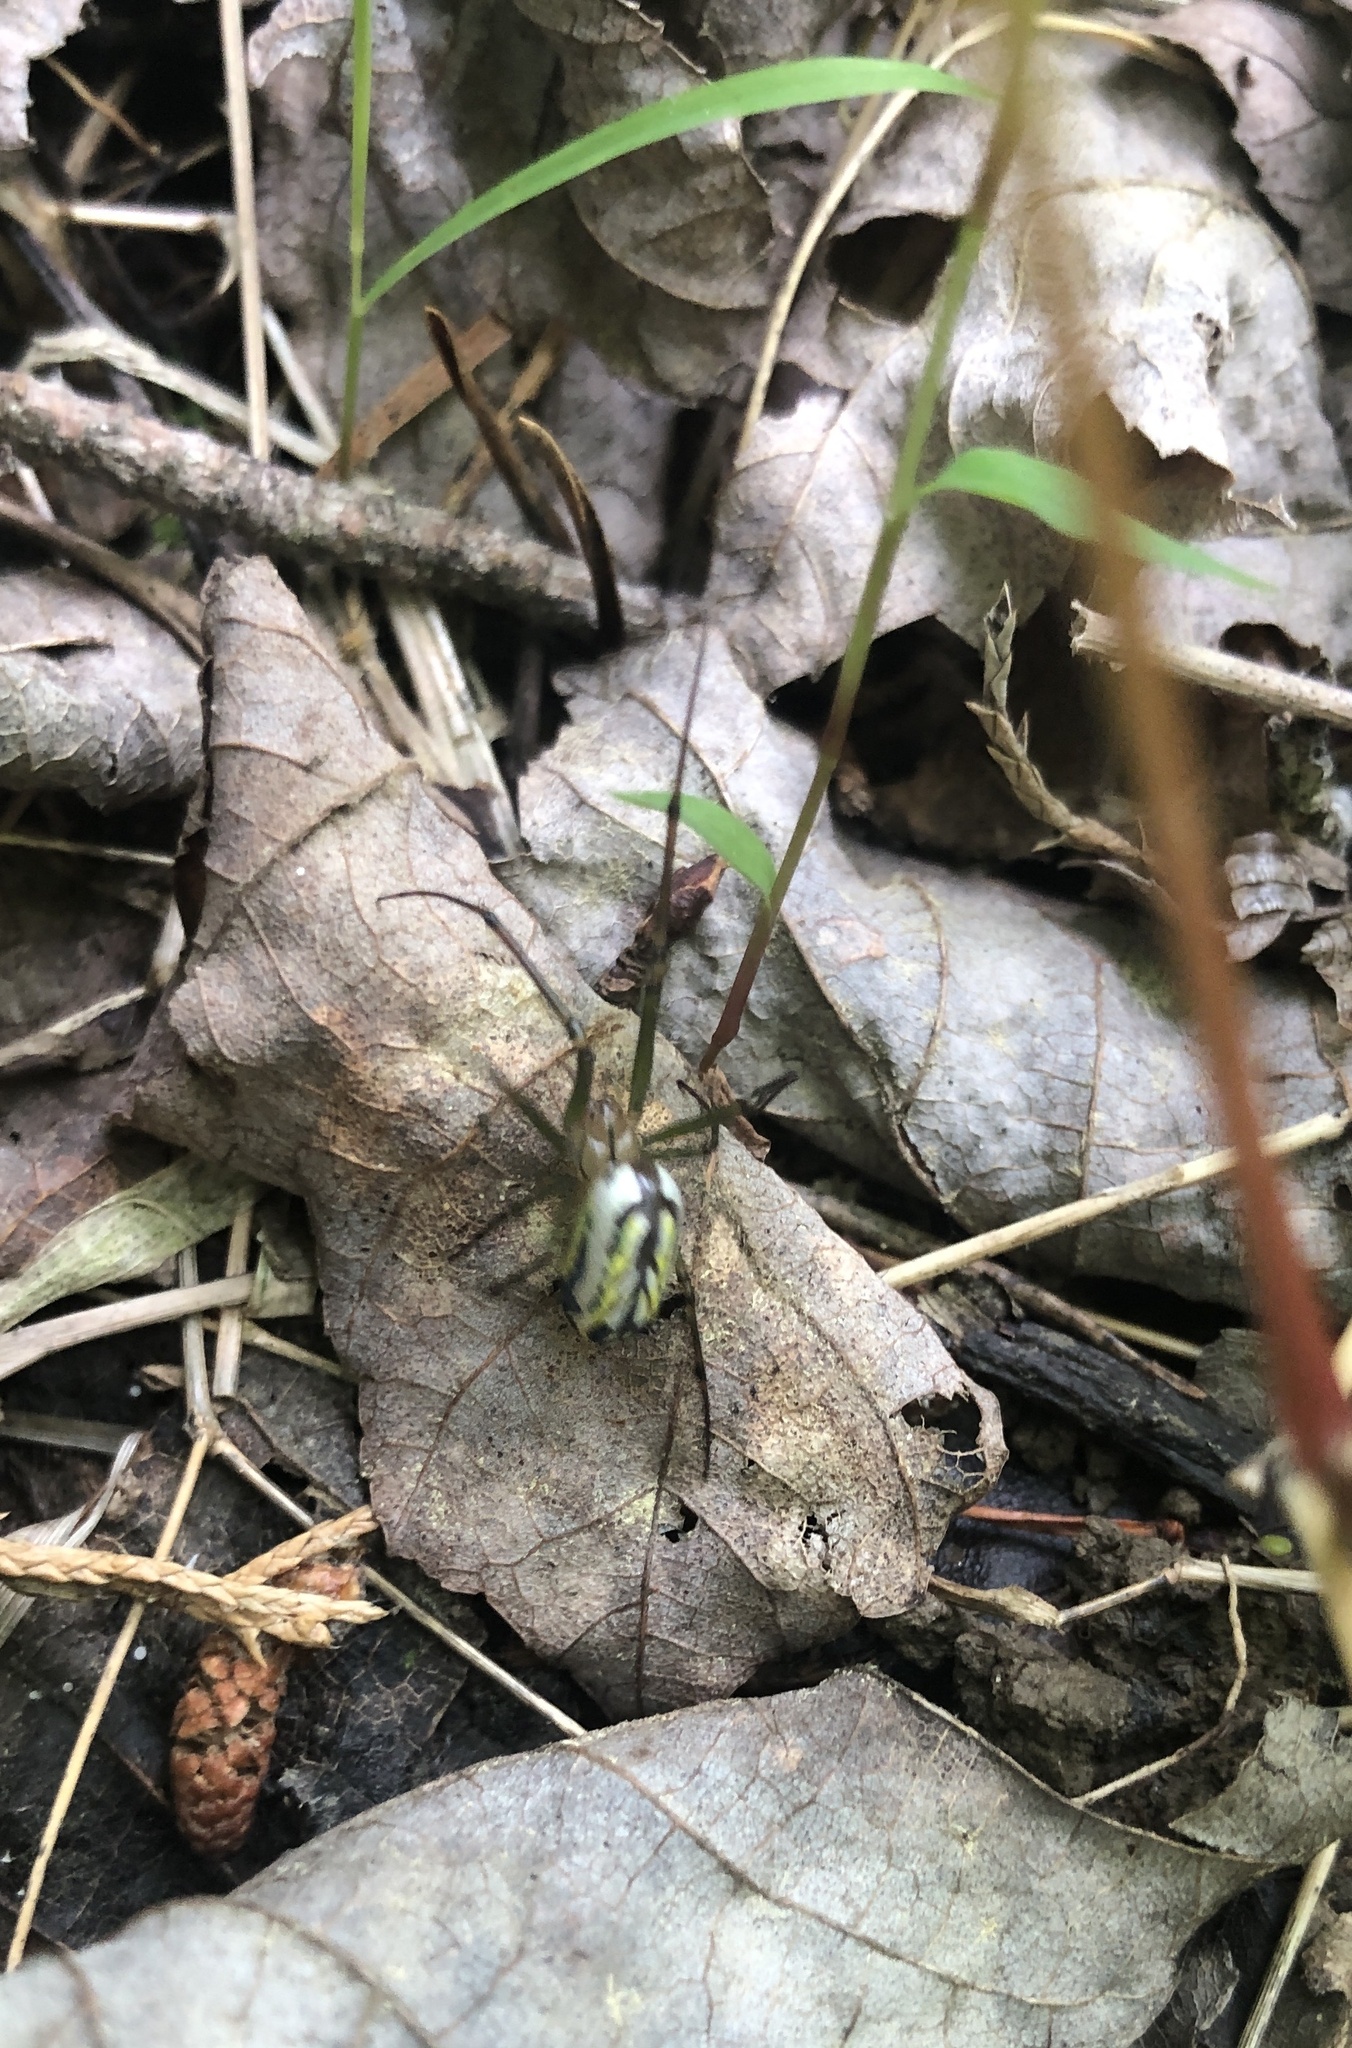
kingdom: Animalia
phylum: Arthropoda
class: Arachnida
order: Araneae
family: Tetragnathidae
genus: Leucauge
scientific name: Leucauge venusta
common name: Longjawed orb weavers
